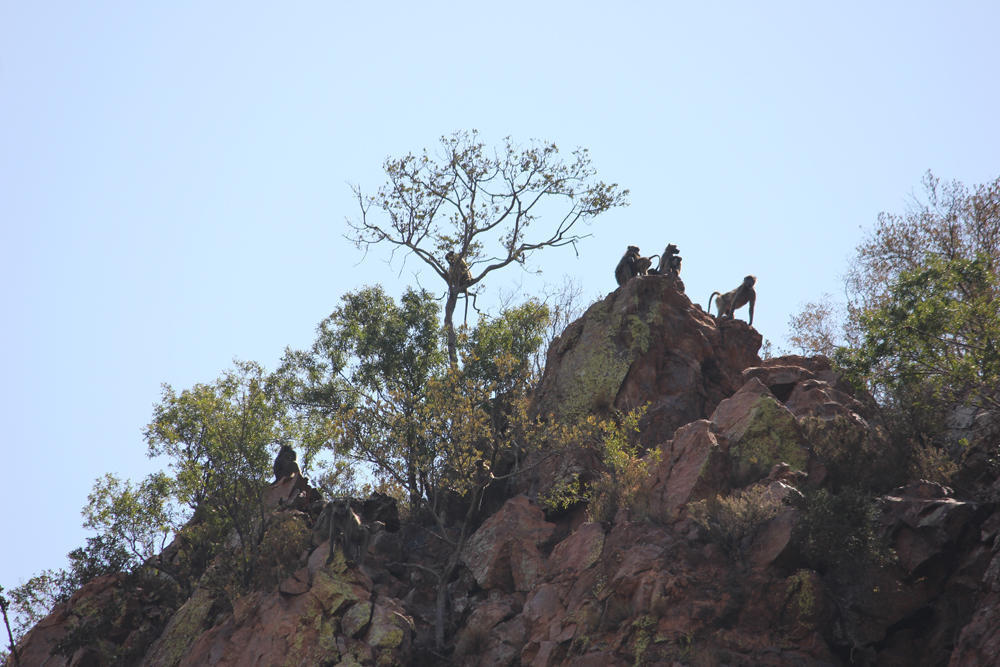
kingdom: Animalia
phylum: Chordata
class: Mammalia
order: Primates
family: Cercopithecidae
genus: Papio
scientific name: Papio ursinus
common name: Chacma baboon
